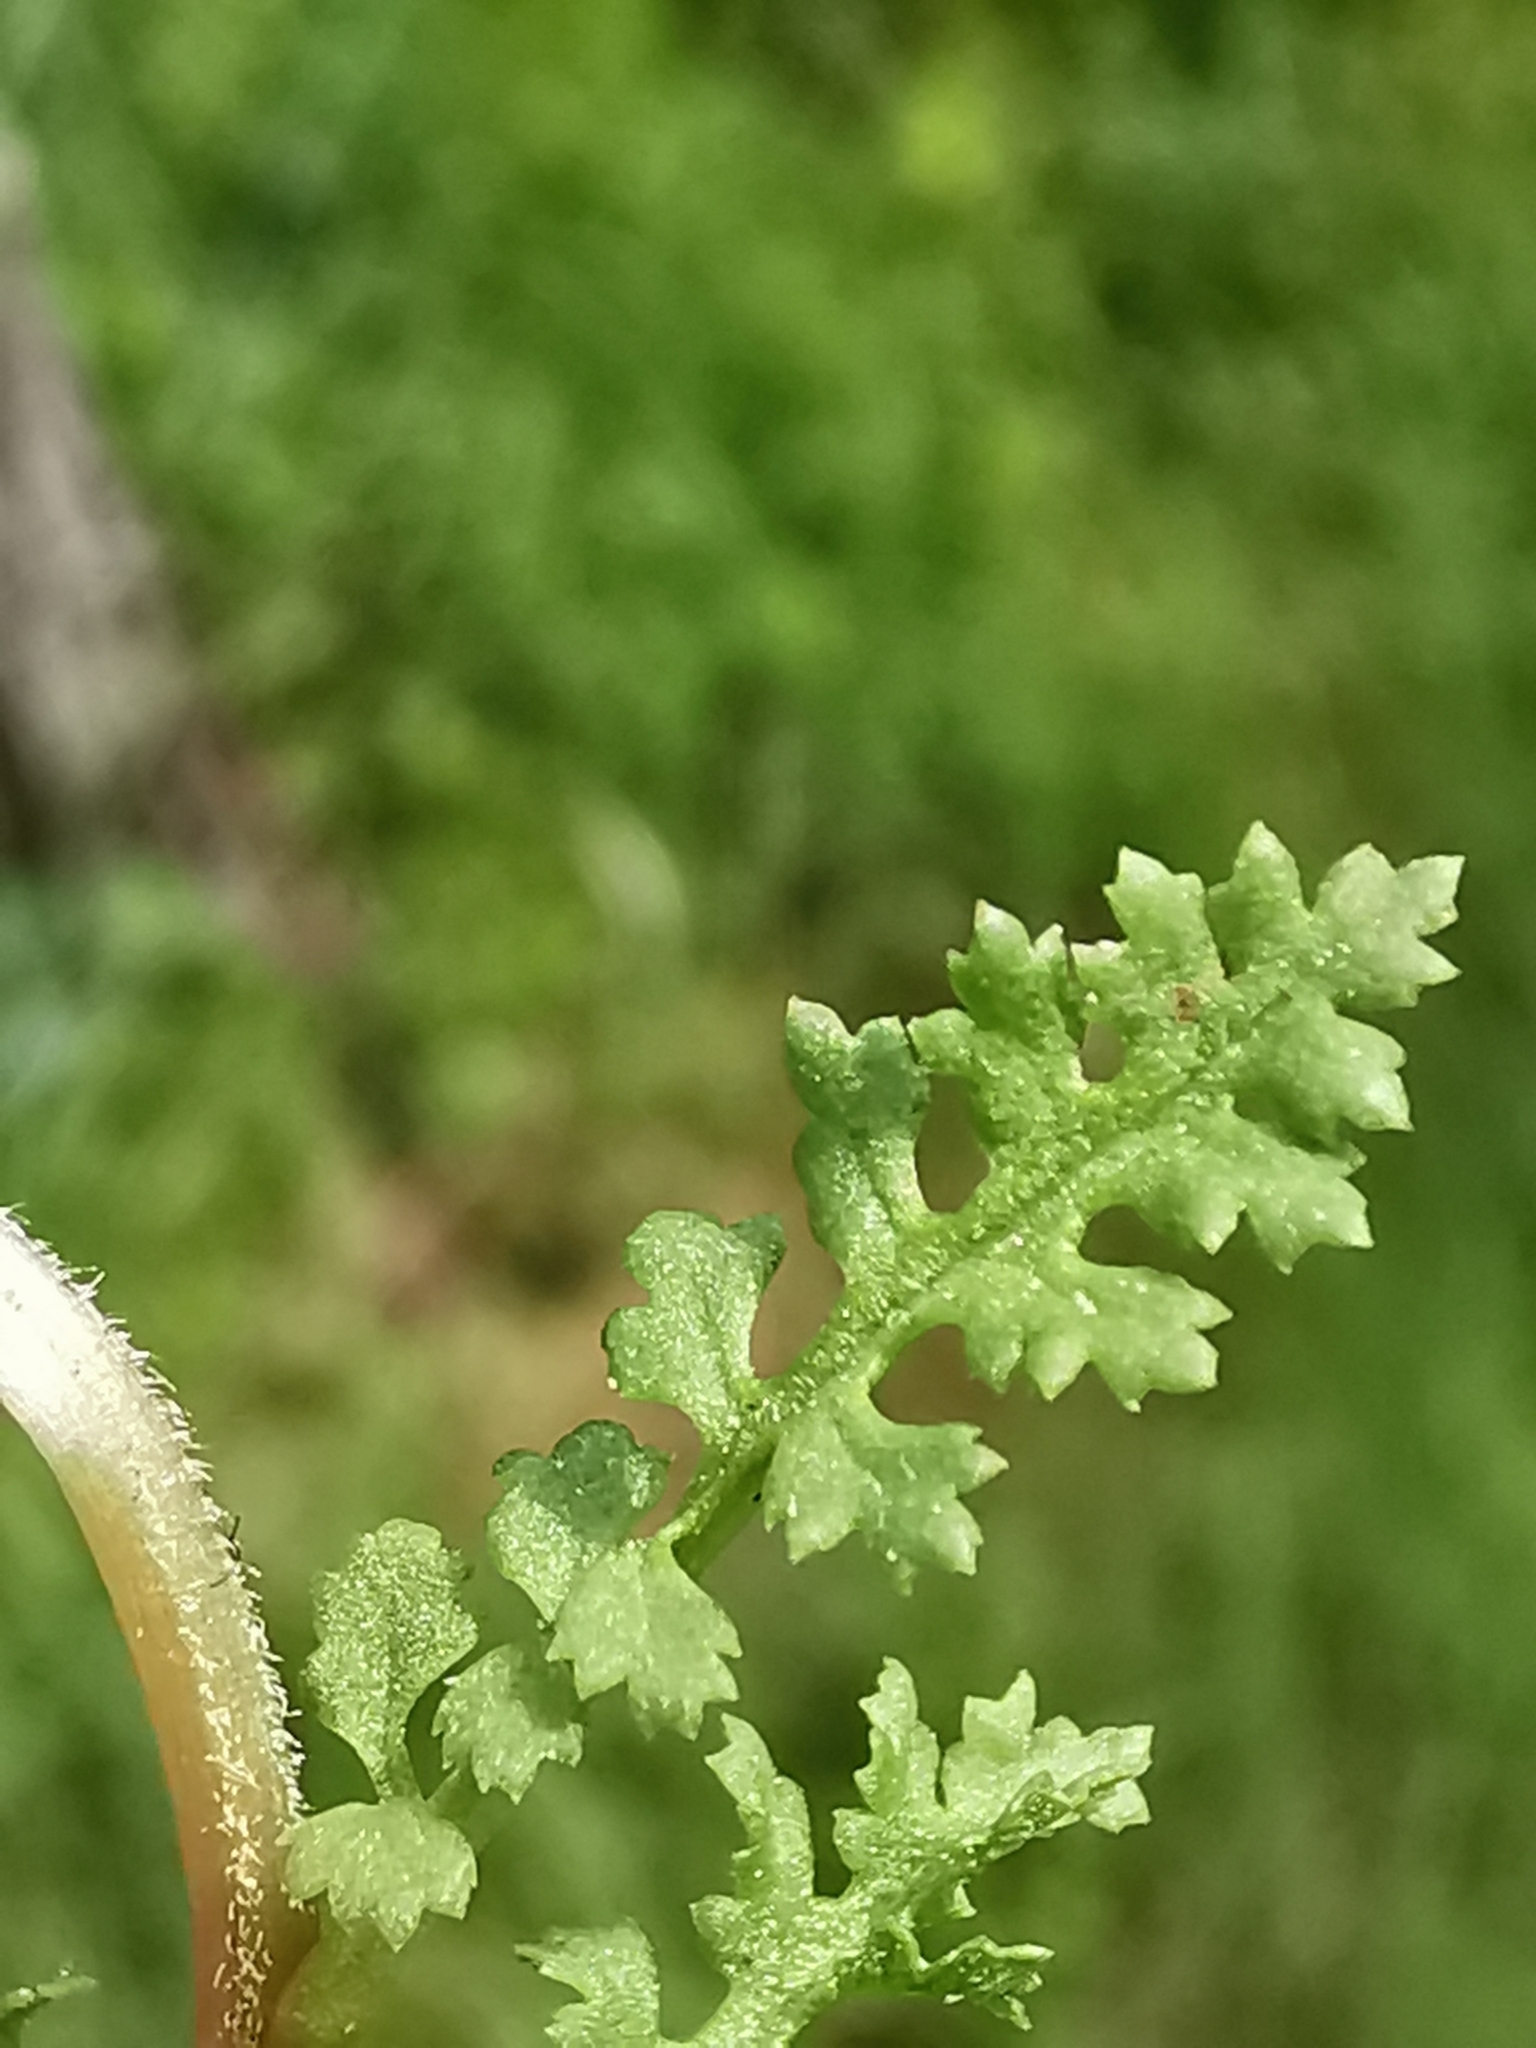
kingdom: Plantae
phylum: Tracheophyta
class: Magnoliopsida
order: Lamiales
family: Orobanchaceae
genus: Pedicularis
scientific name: Pedicularis sylvatica
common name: Lousewort
